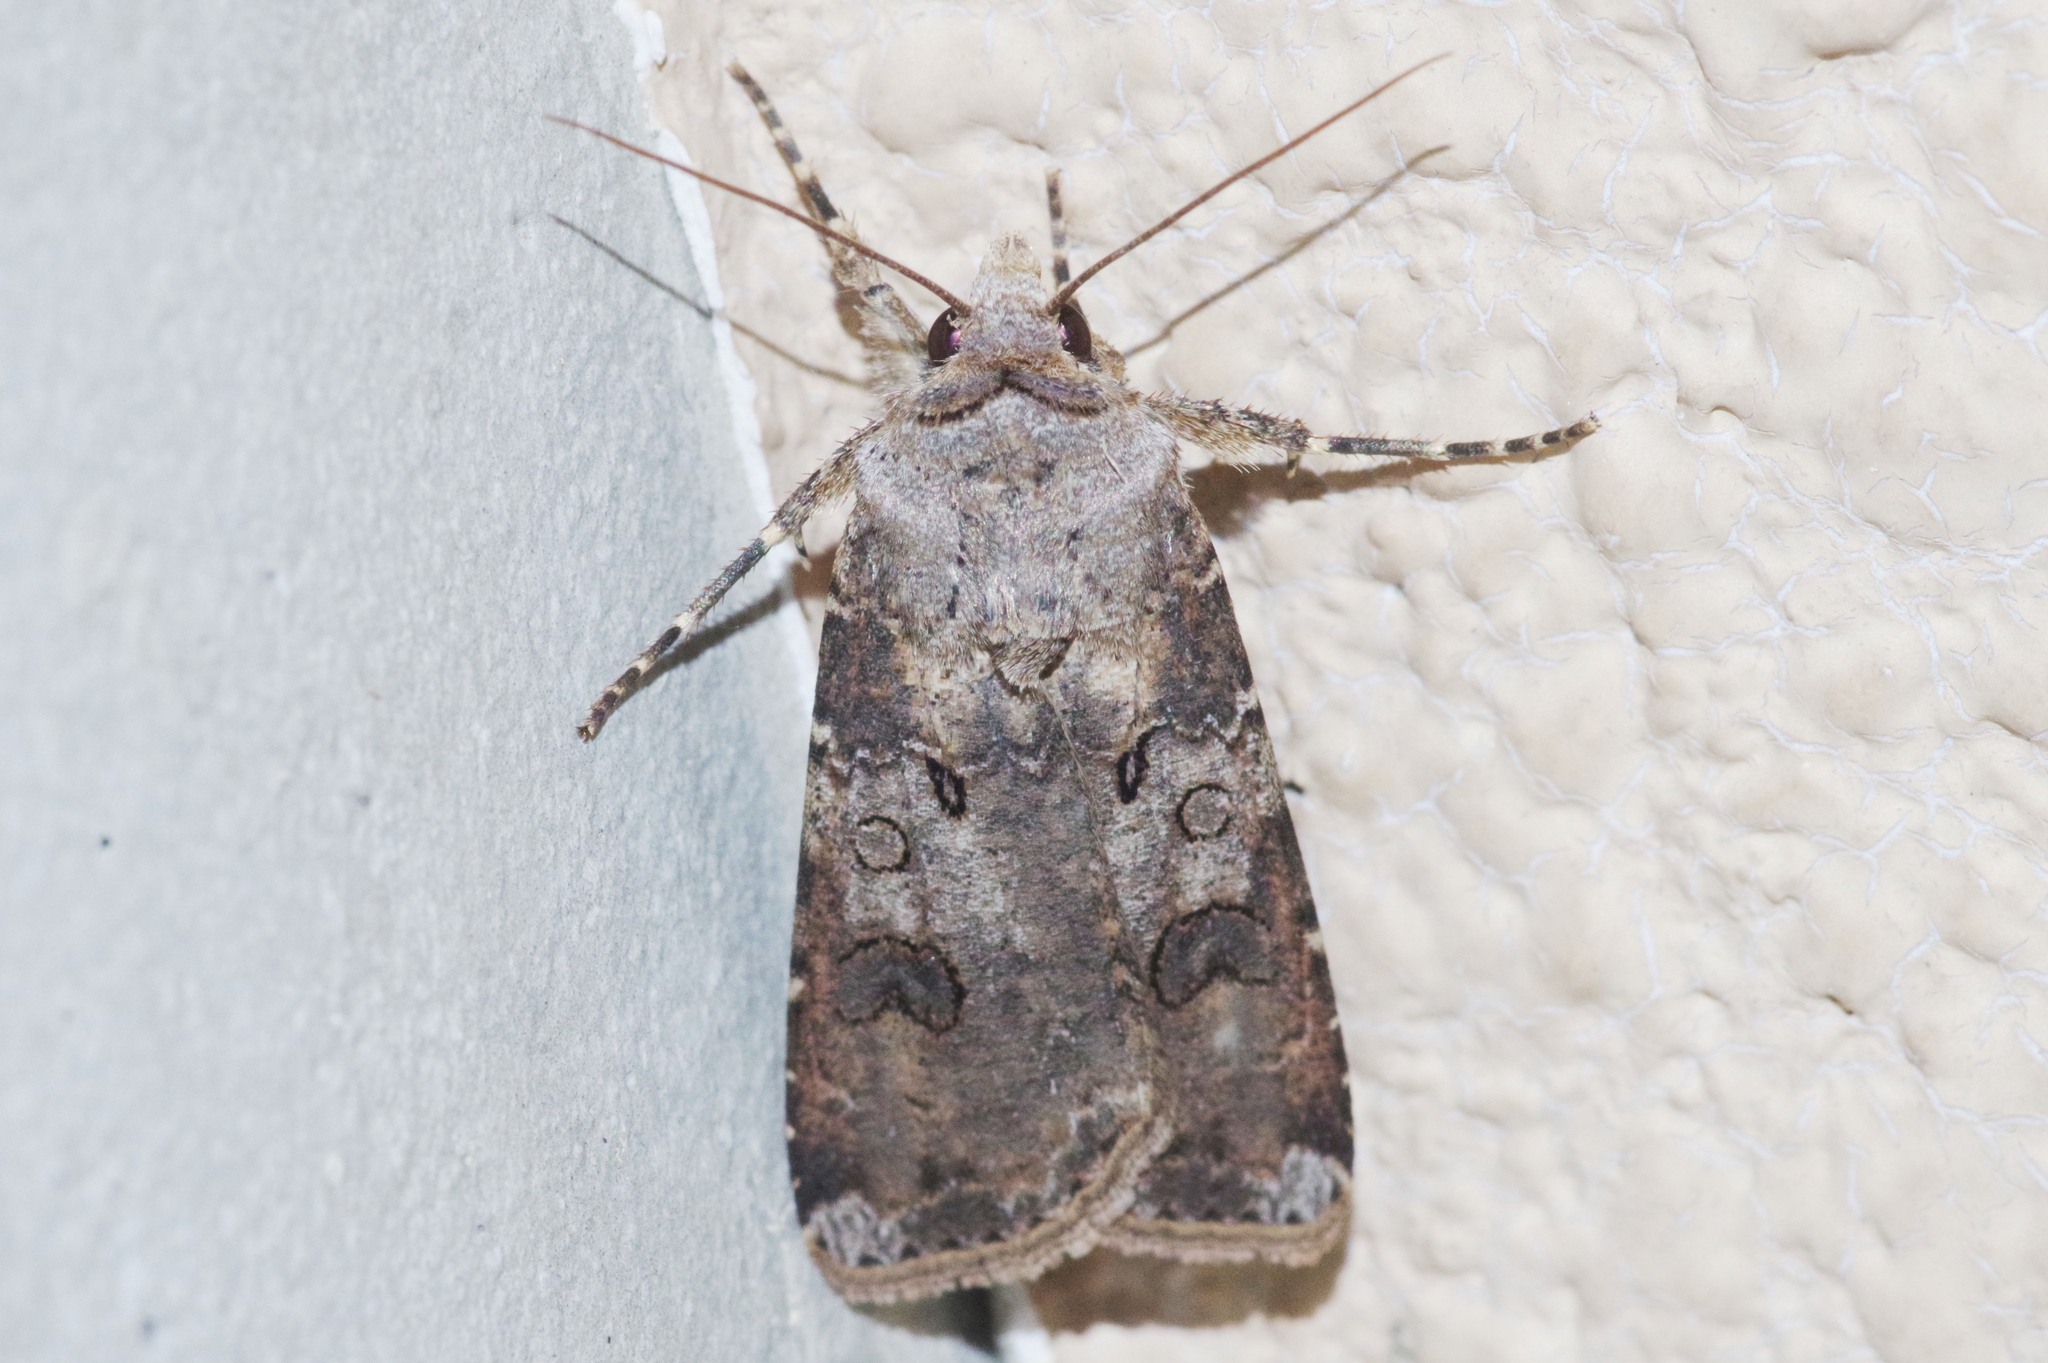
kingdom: Animalia
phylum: Arthropoda
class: Insecta
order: Lepidoptera
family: Noctuidae
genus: Agrotis
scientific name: Agrotis segetum
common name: Turnip moth
